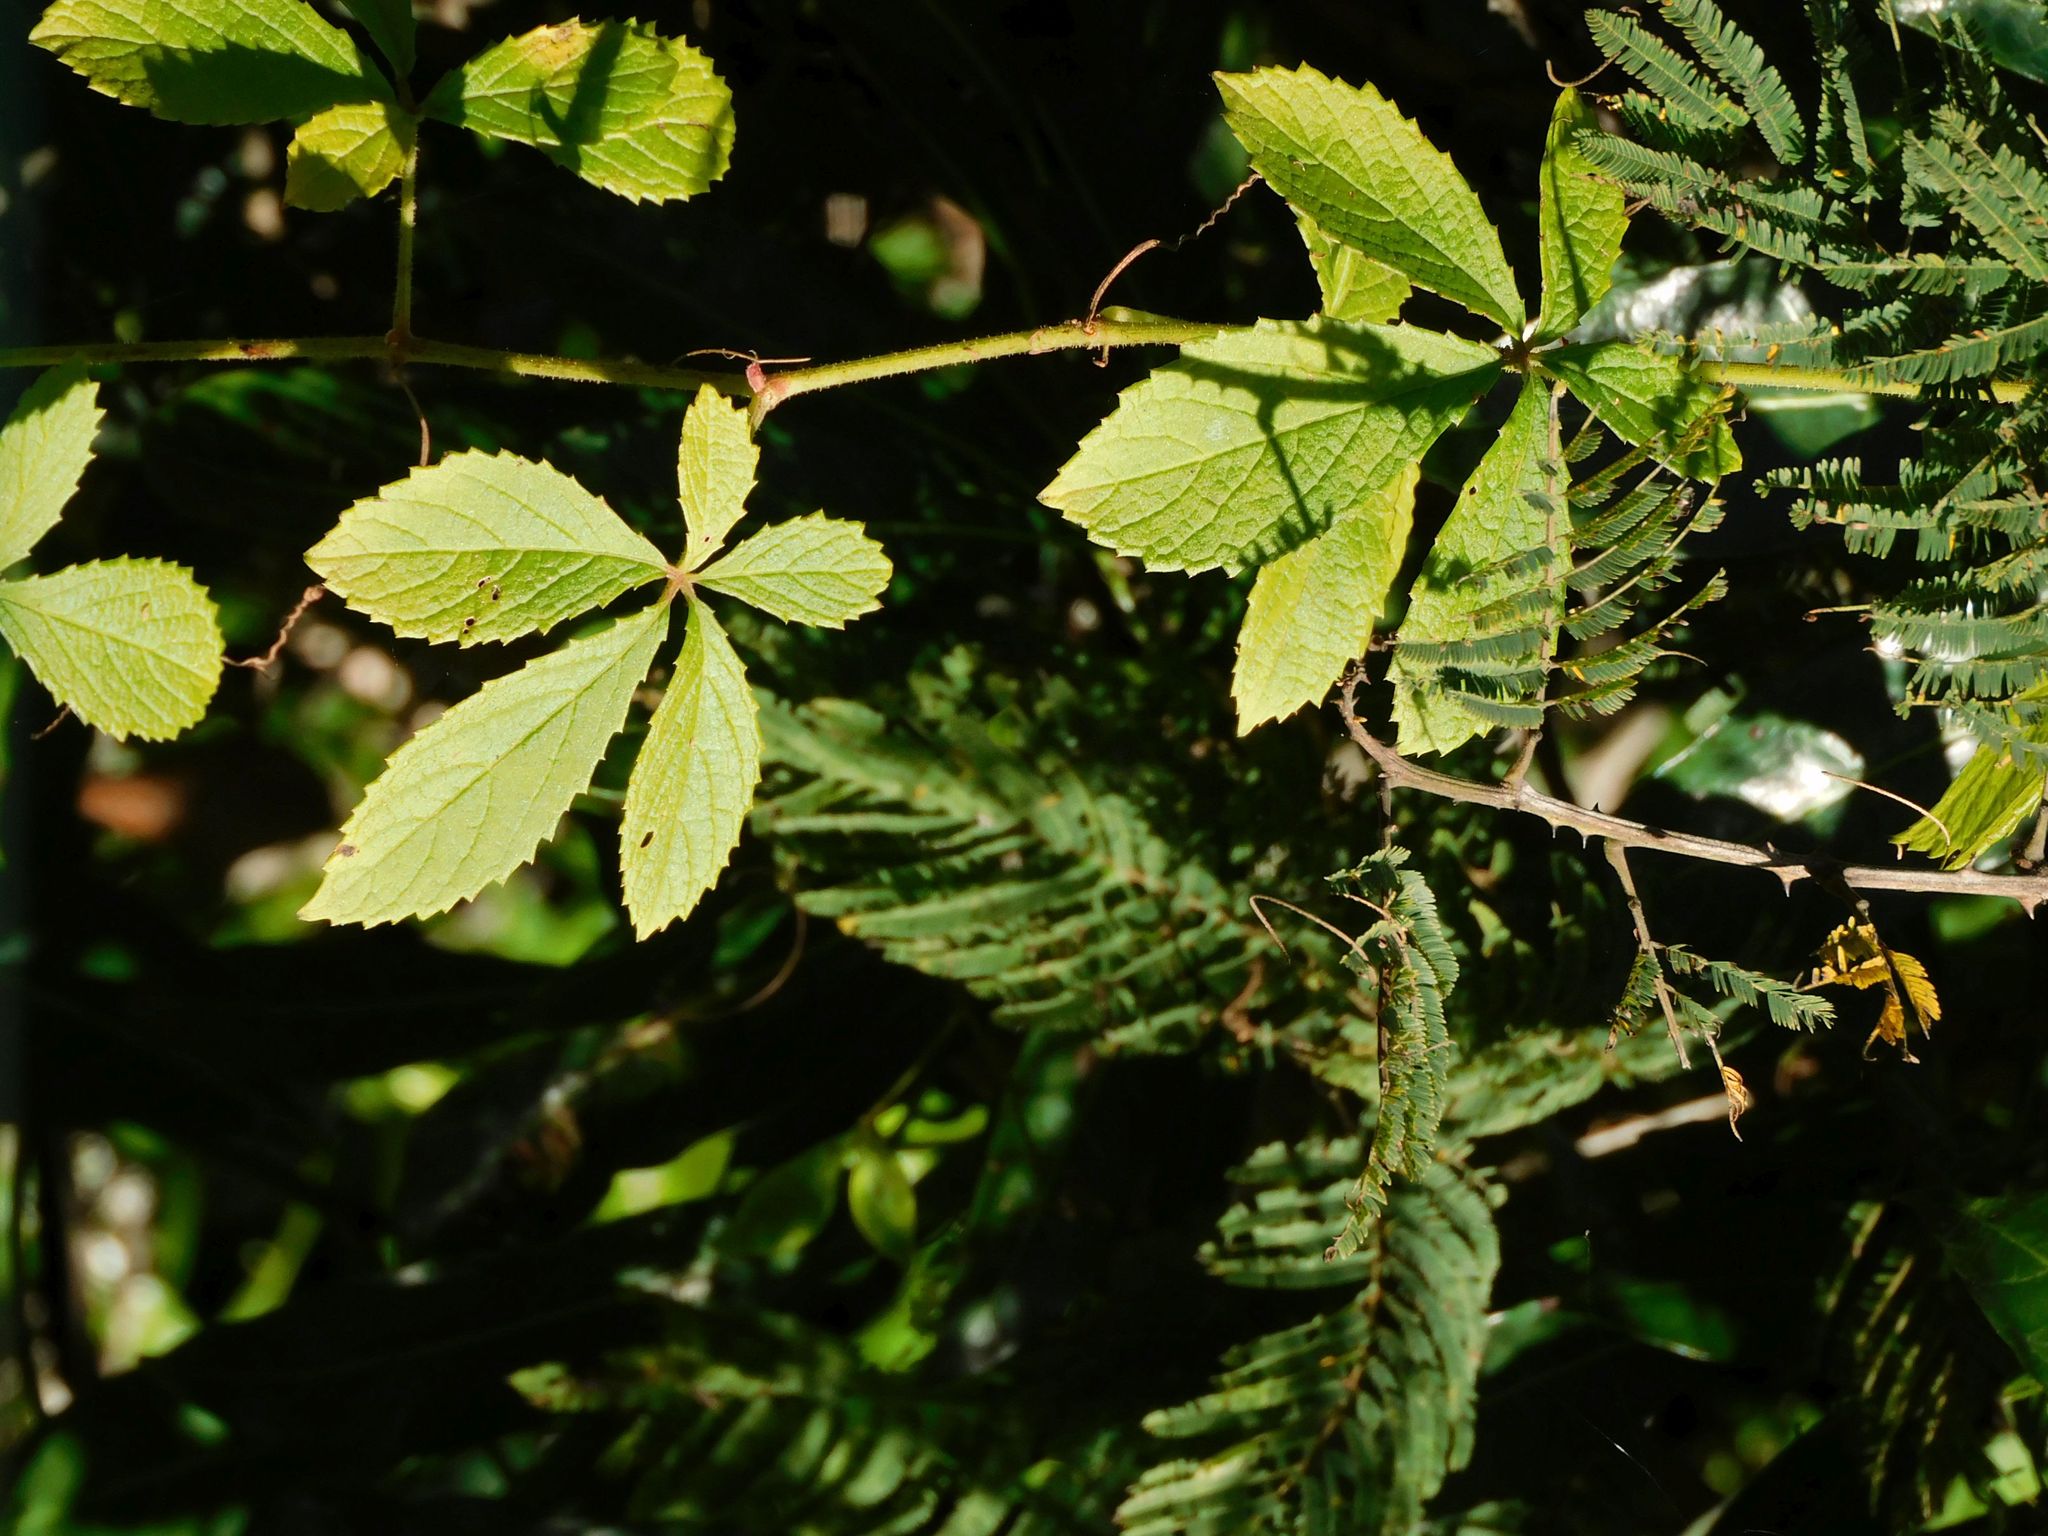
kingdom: Plantae
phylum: Tracheophyta
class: Magnoliopsida
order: Vitales
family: Vitaceae
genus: Cyphostemma
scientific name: Cyphostemma cirrhosum
